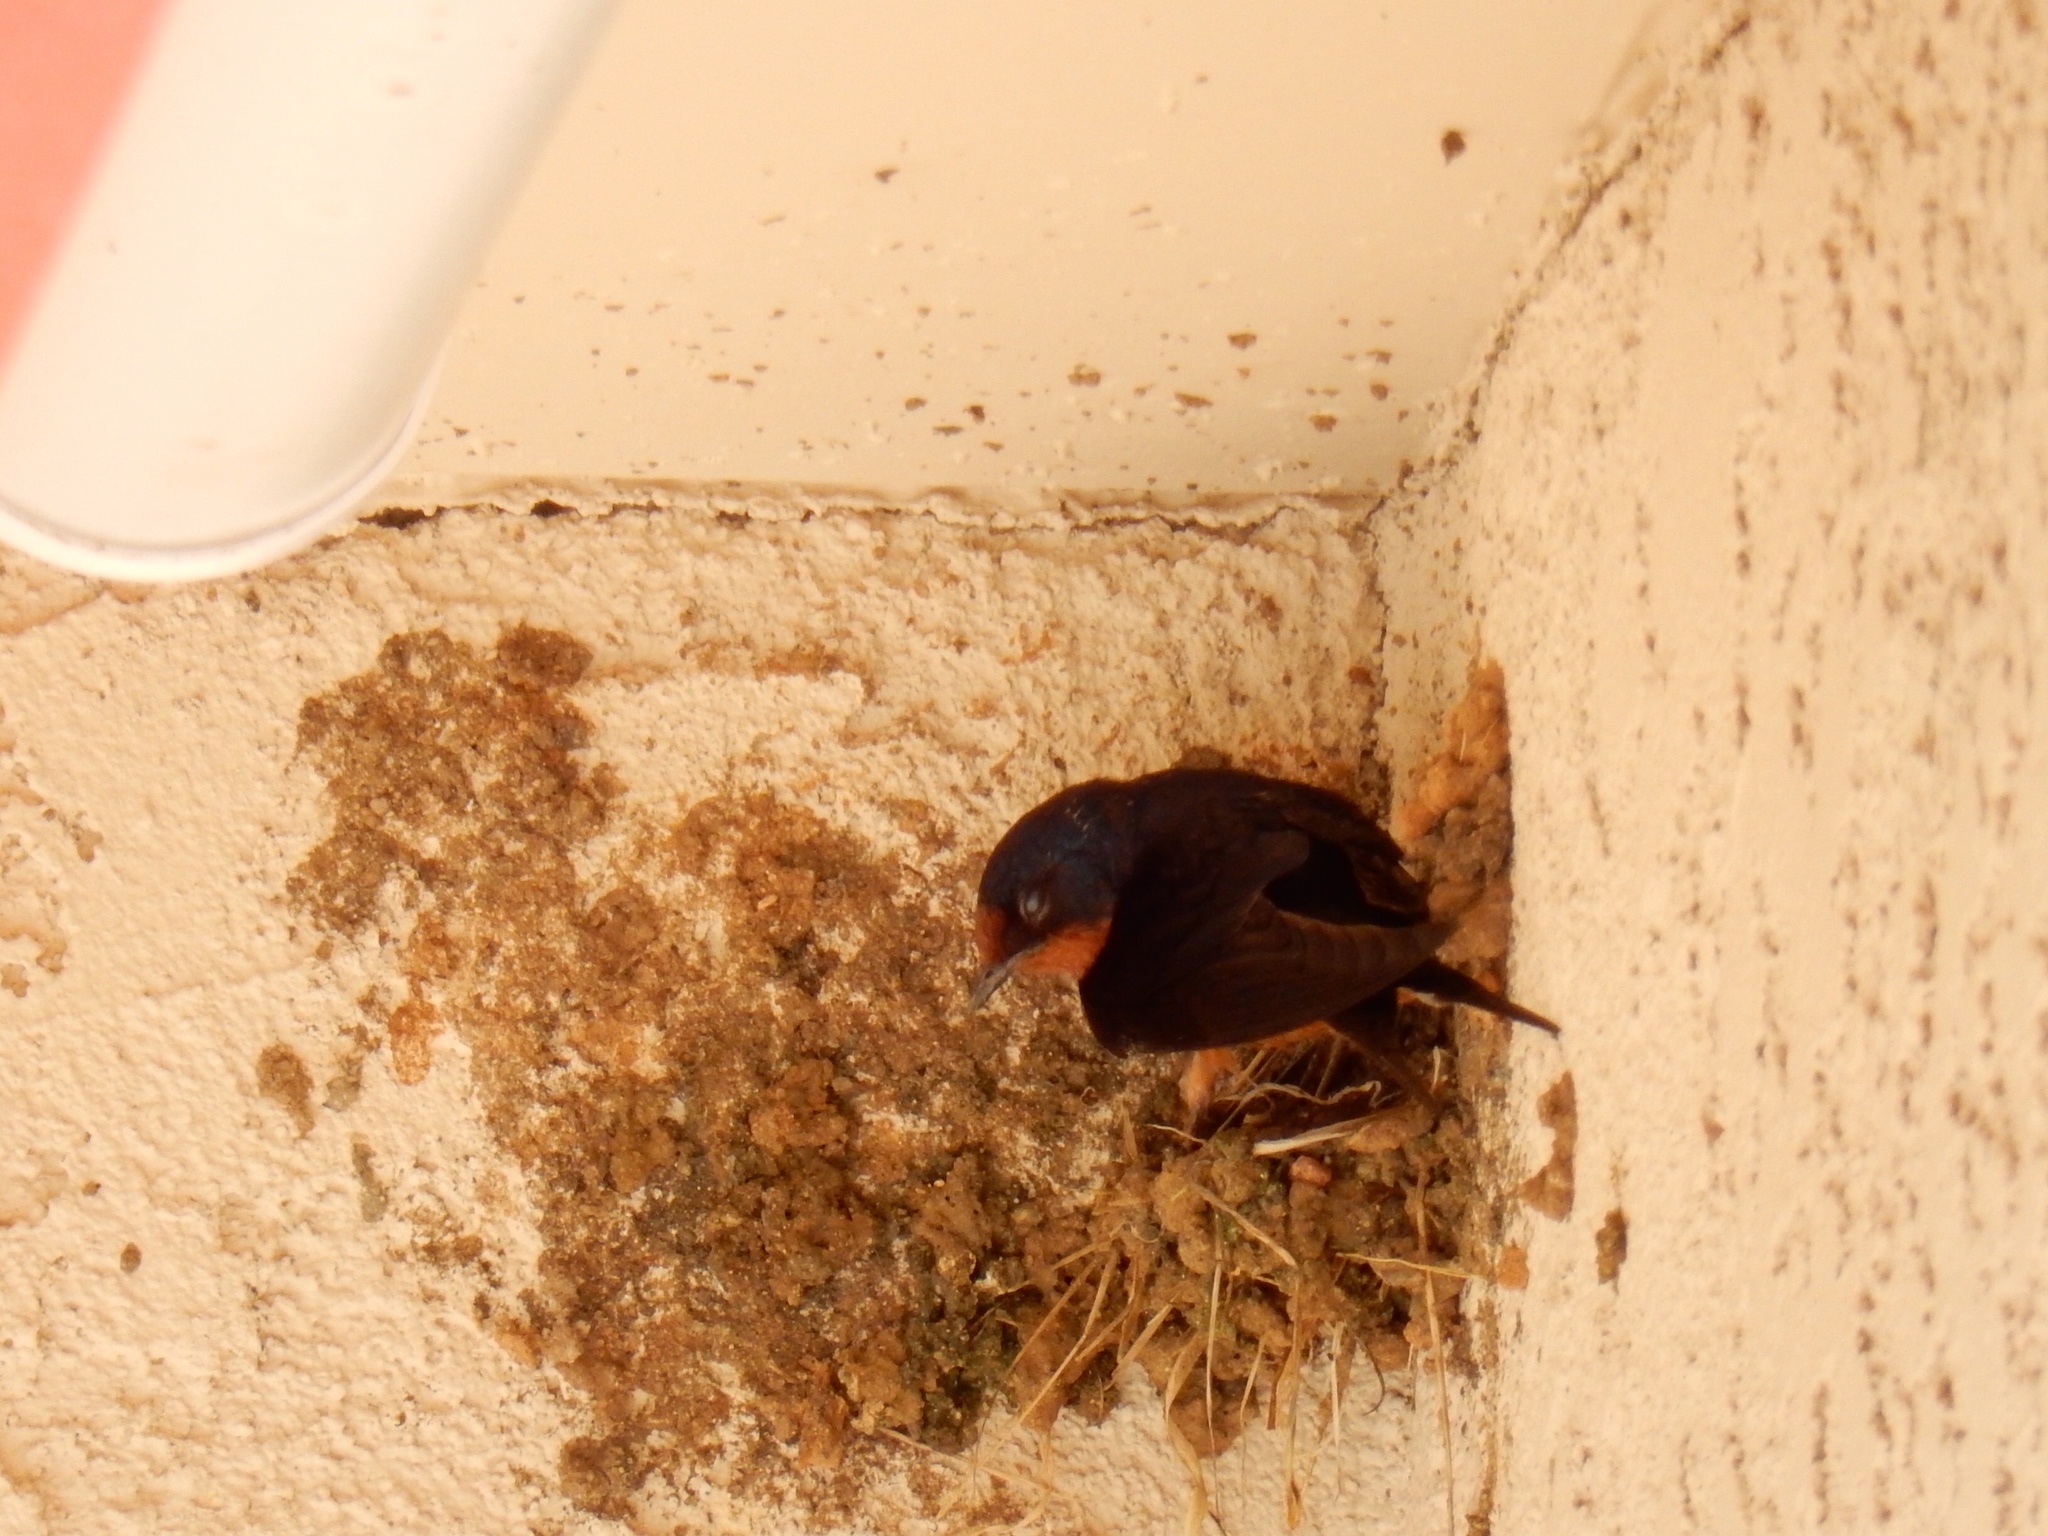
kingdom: Animalia
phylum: Chordata
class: Aves
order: Passeriformes
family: Hirundinidae
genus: Hirundo
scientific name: Hirundo rustica
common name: Barn swallow
